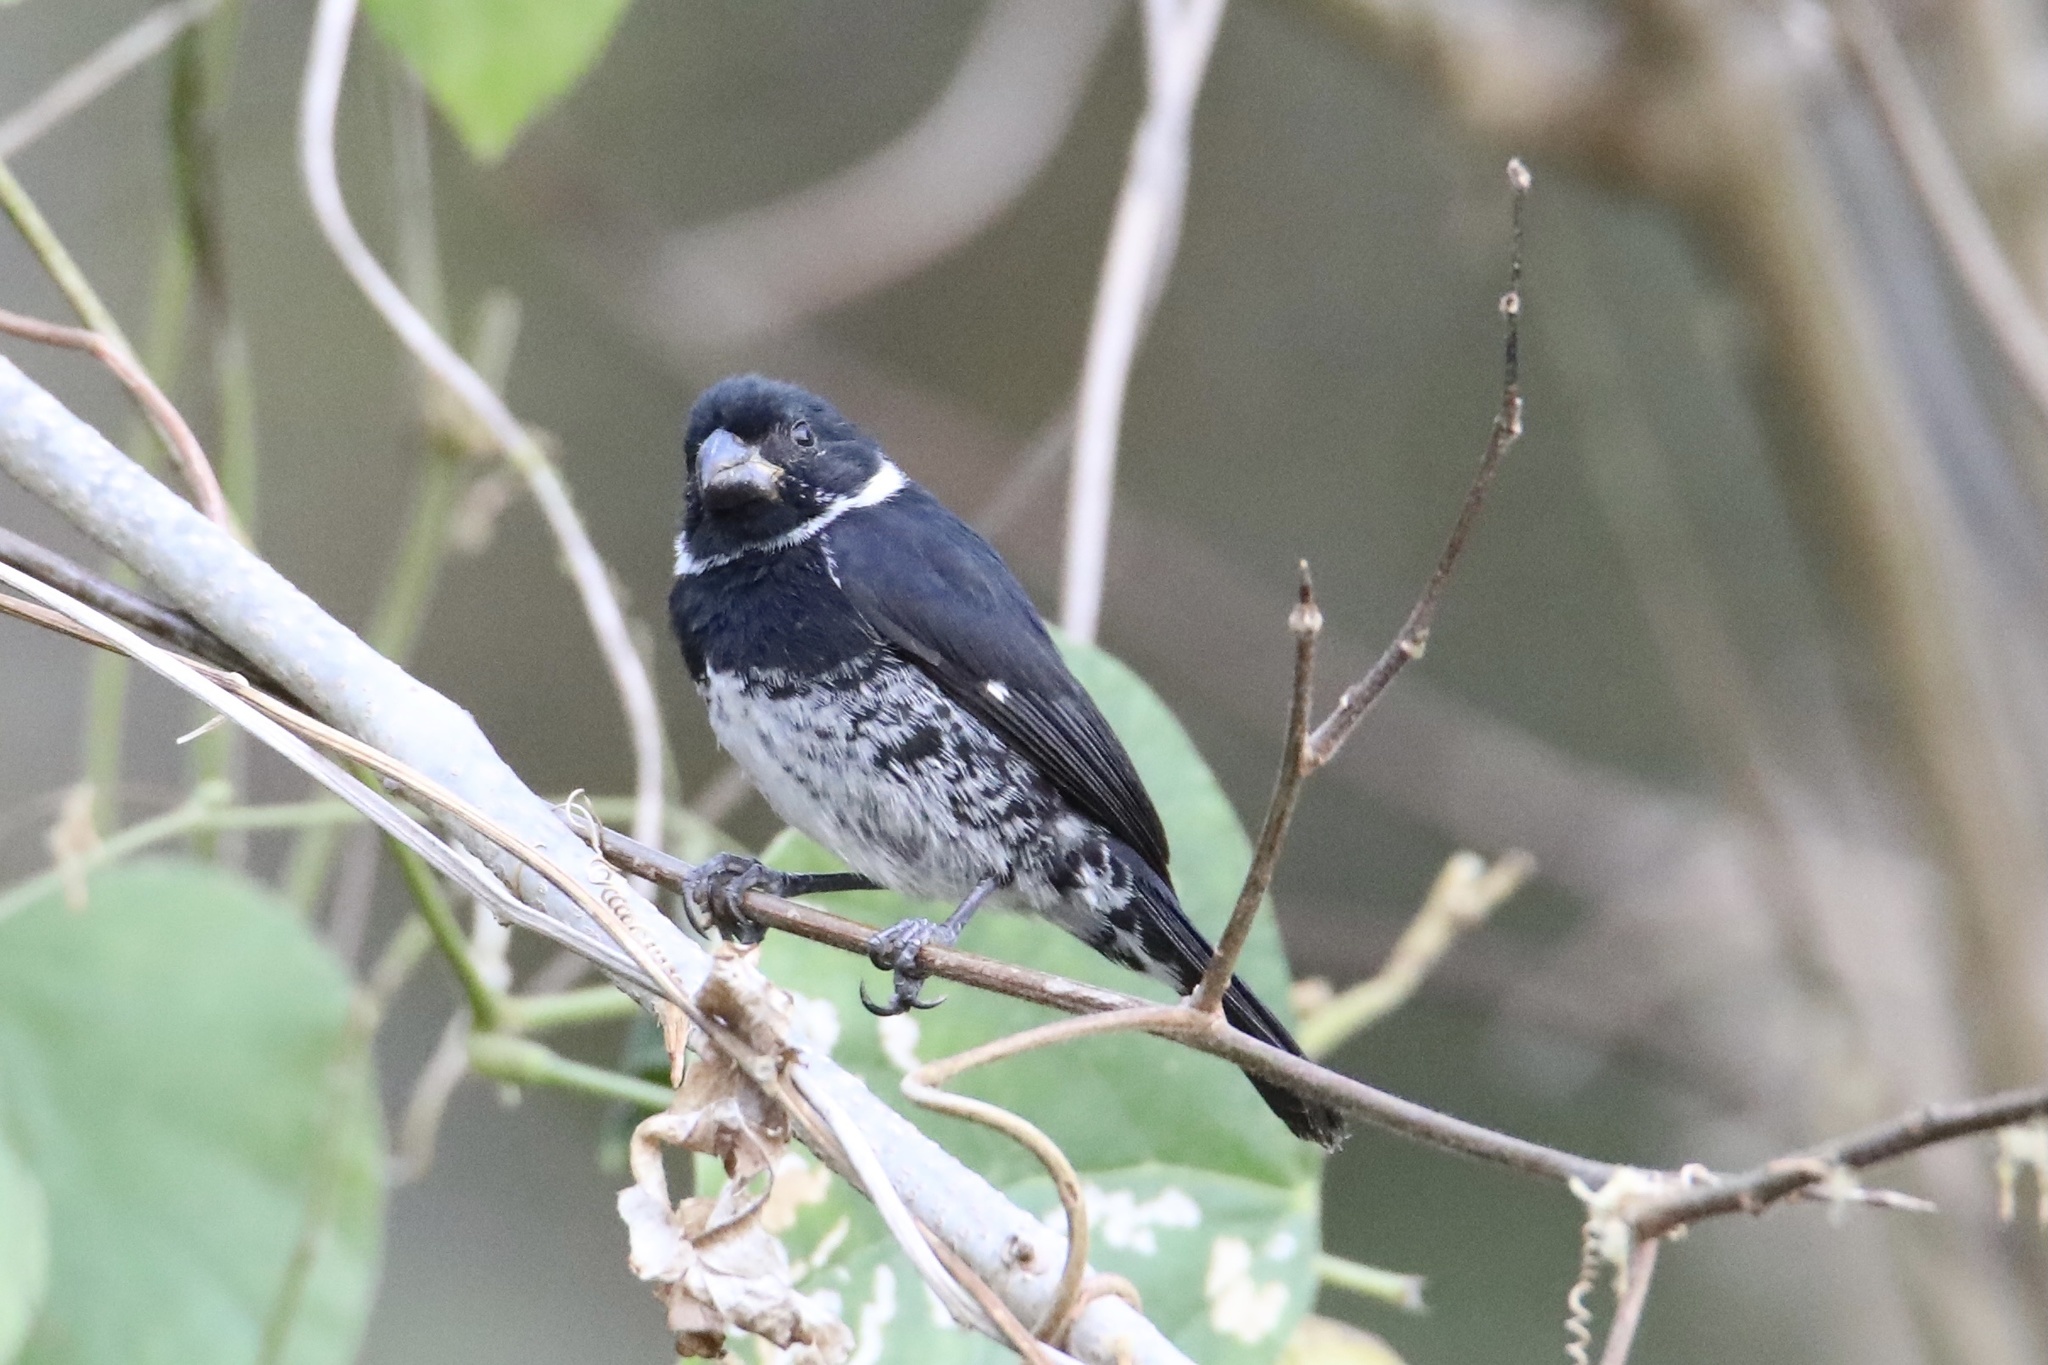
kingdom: Animalia
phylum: Chordata
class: Aves
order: Passeriformes
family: Thraupidae
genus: Sporophila
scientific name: Sporophila corvina
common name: Variable seedeater
